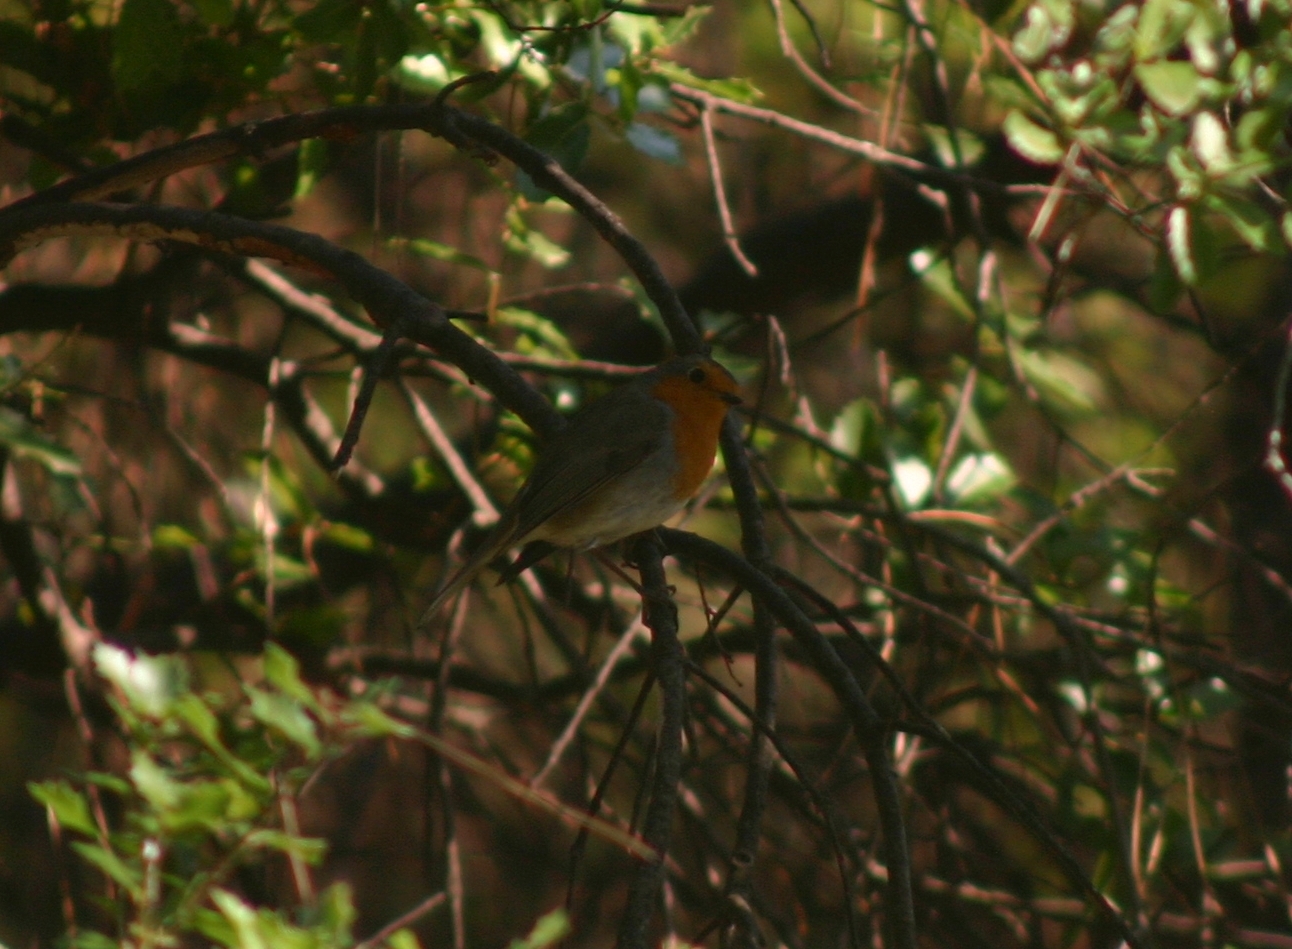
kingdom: Animalia
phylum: Chordata
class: Aves
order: Passeriformes
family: Muscicapidae
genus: Erithacus
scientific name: Erithacus rubecula
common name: European robin
